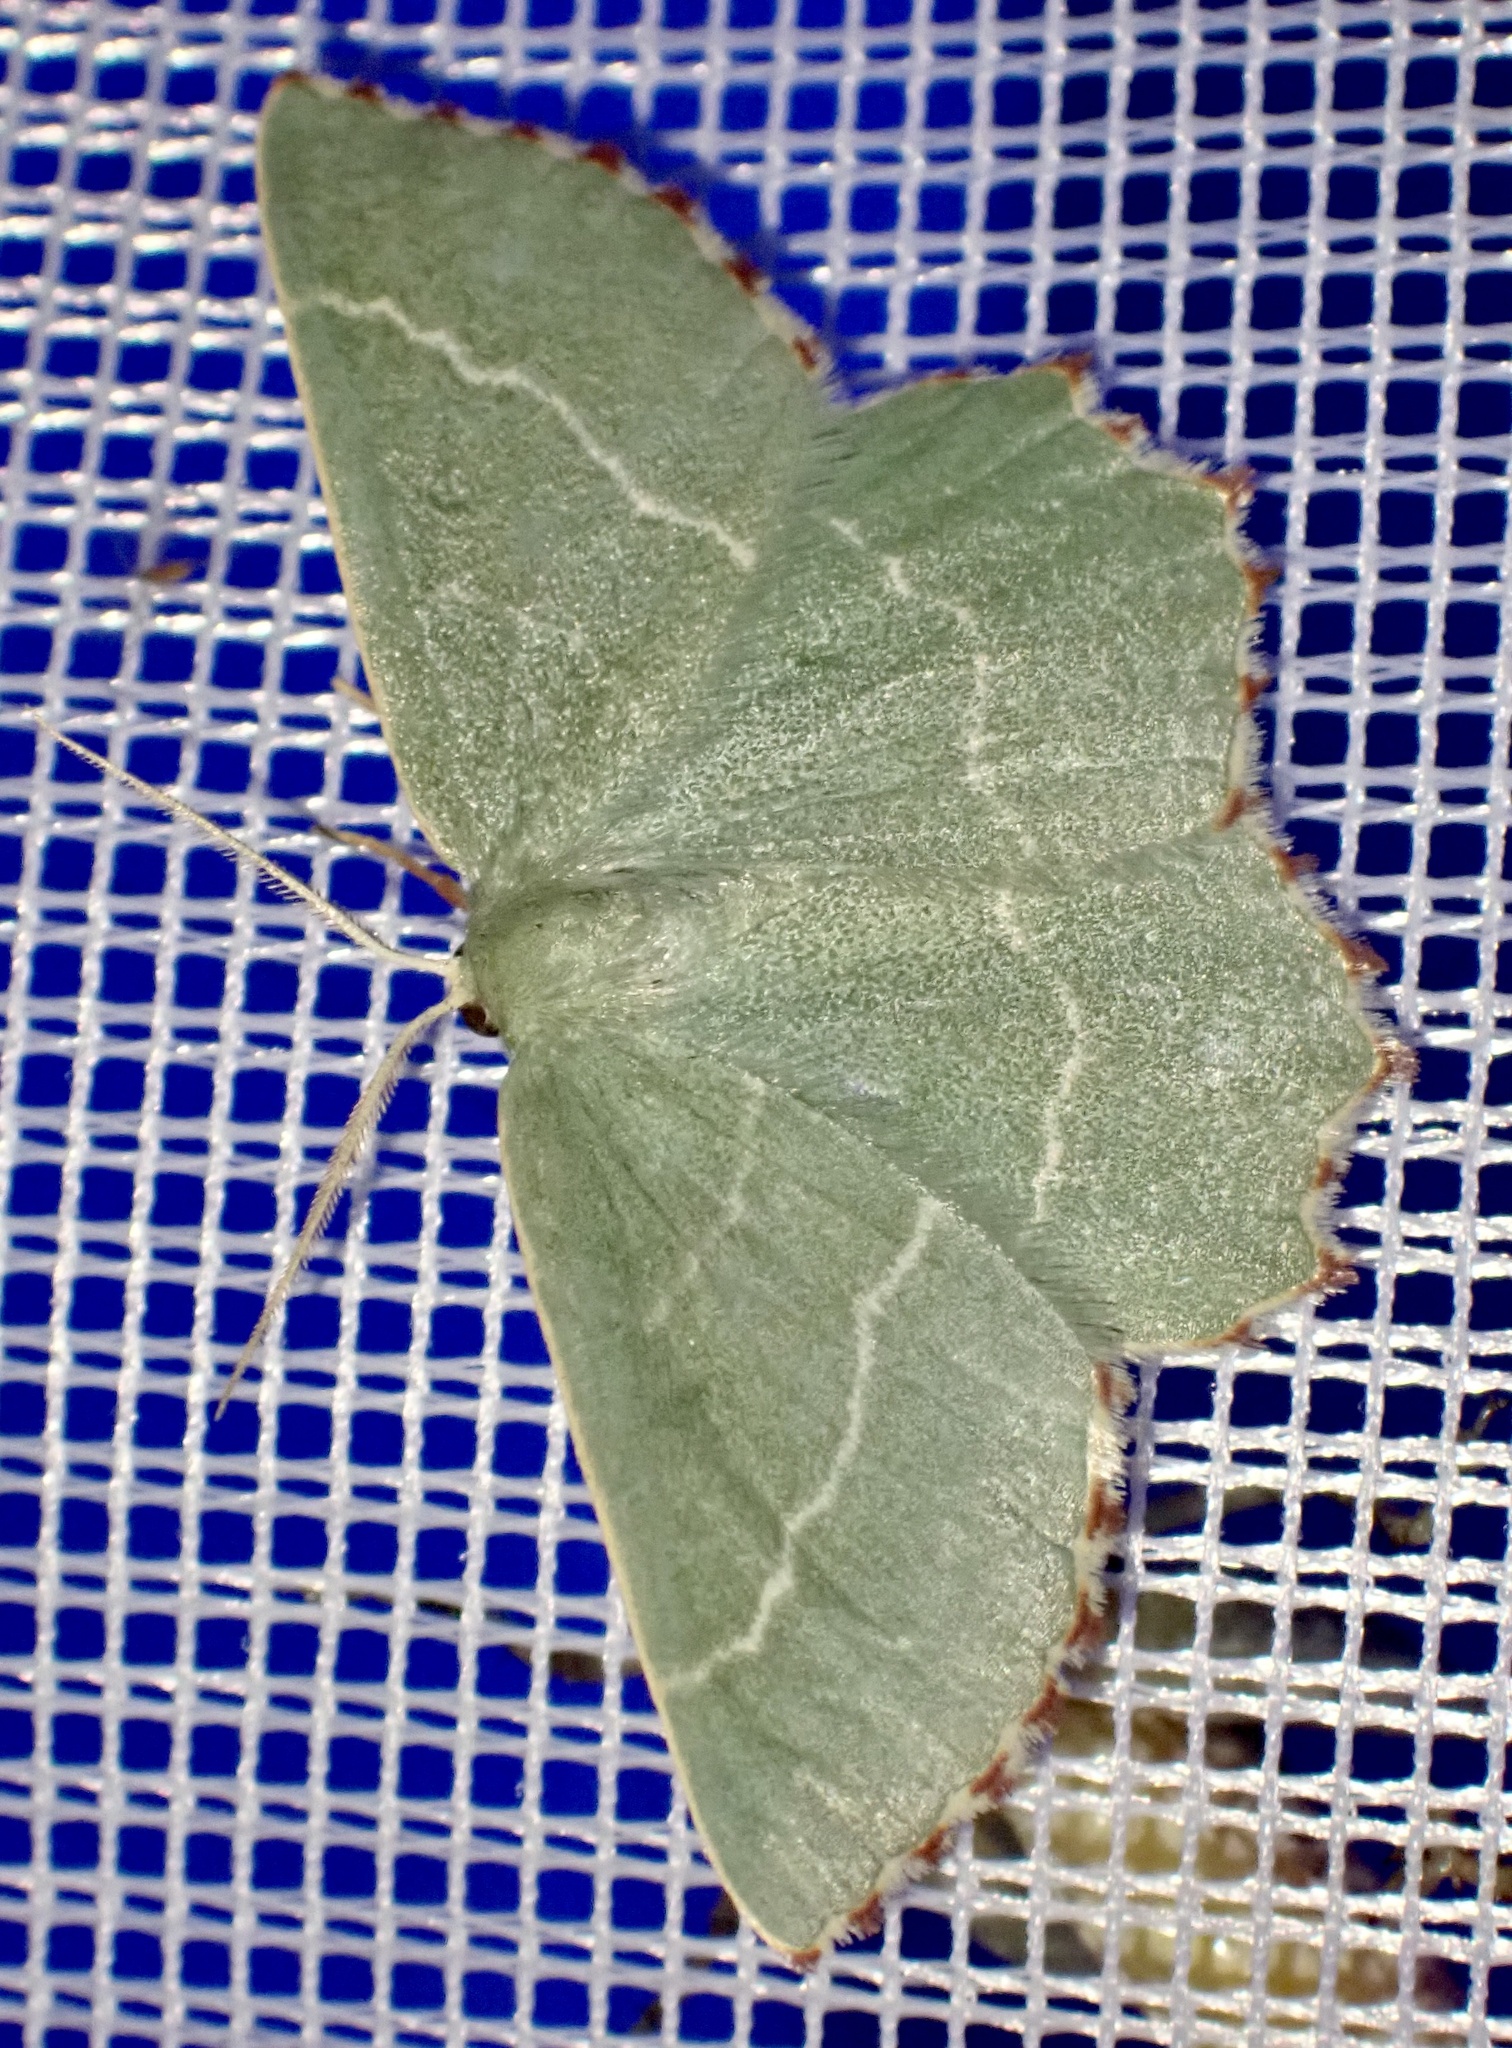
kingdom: Animalia
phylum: Arthropoda
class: Insecta
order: Lepidoptera
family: Geometridae
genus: Thalera
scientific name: Thalera fimbrialis
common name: Sussex emerald
